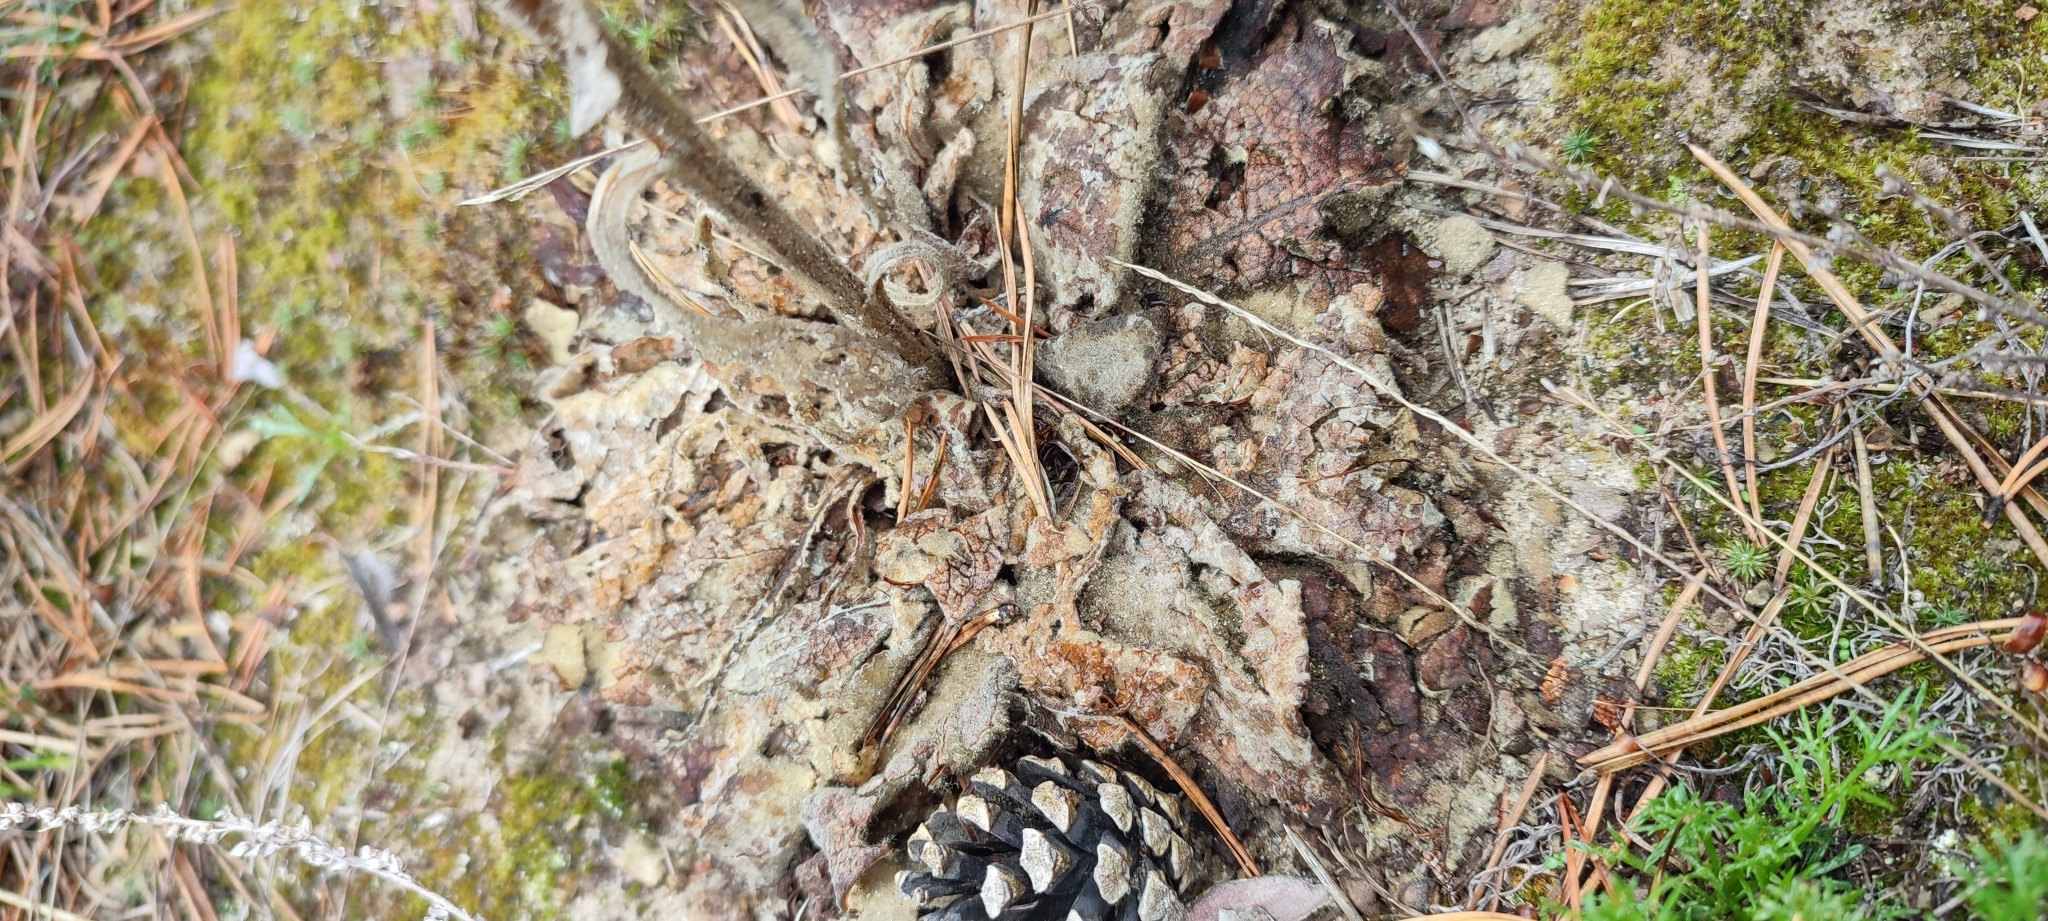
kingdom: Plantae
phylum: Tracheophyta
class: Magnoliopsida
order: Lamiales
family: Scrophulariaceae
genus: Verbascum
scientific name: Verbascum thapsus
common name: Common mullein
